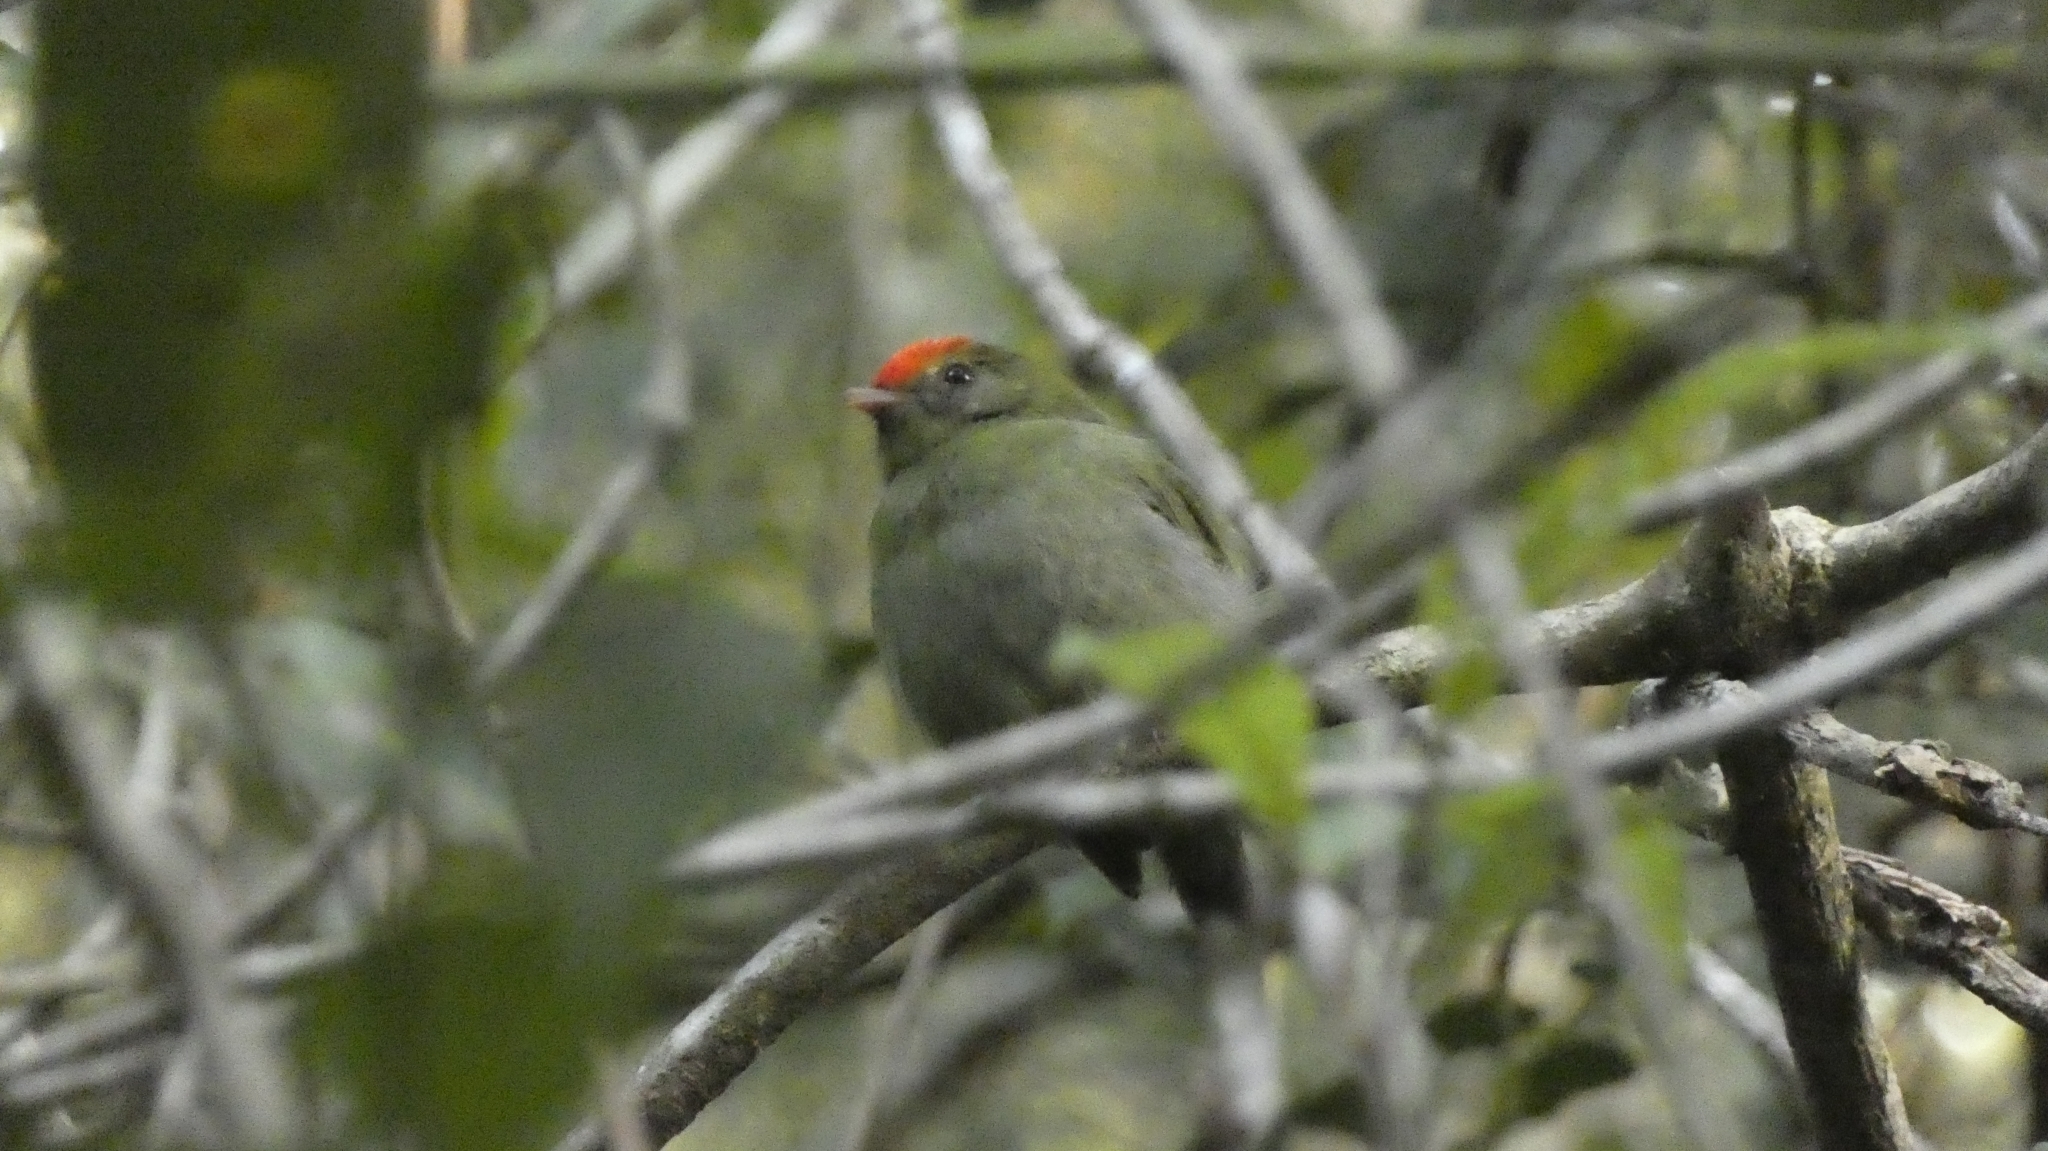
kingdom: Animalia
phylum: Chordata
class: Aves
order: Passeriformes
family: Pipridae
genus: Chiroxiphia
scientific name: Chiroxiphia caudata
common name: Blue manakin
